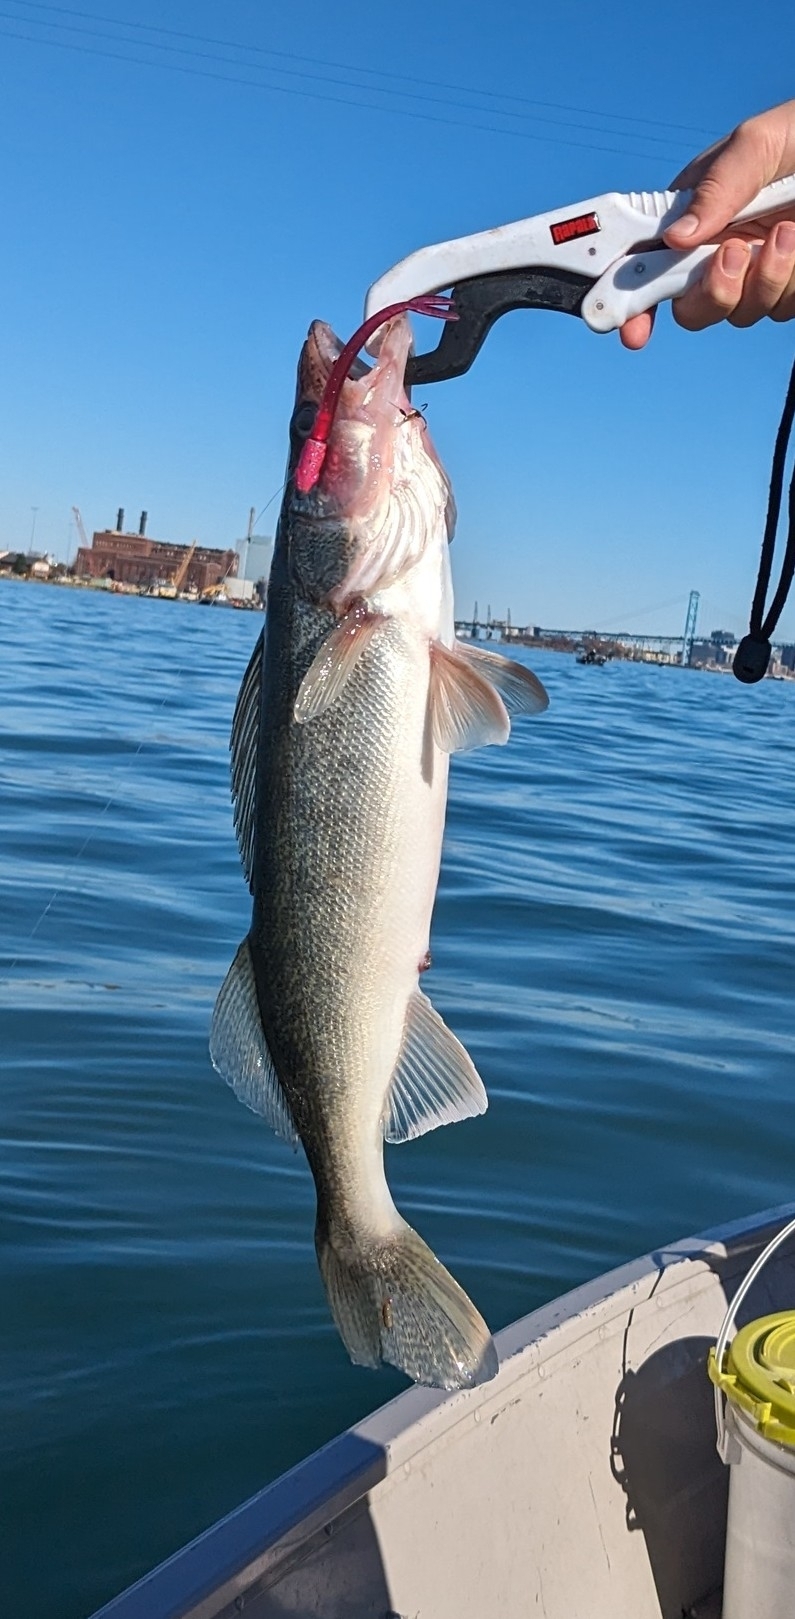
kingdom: Animalia
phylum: Chordata
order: Perciformes
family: Percidae
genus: Sander
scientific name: Sander vitreus
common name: Walleye
